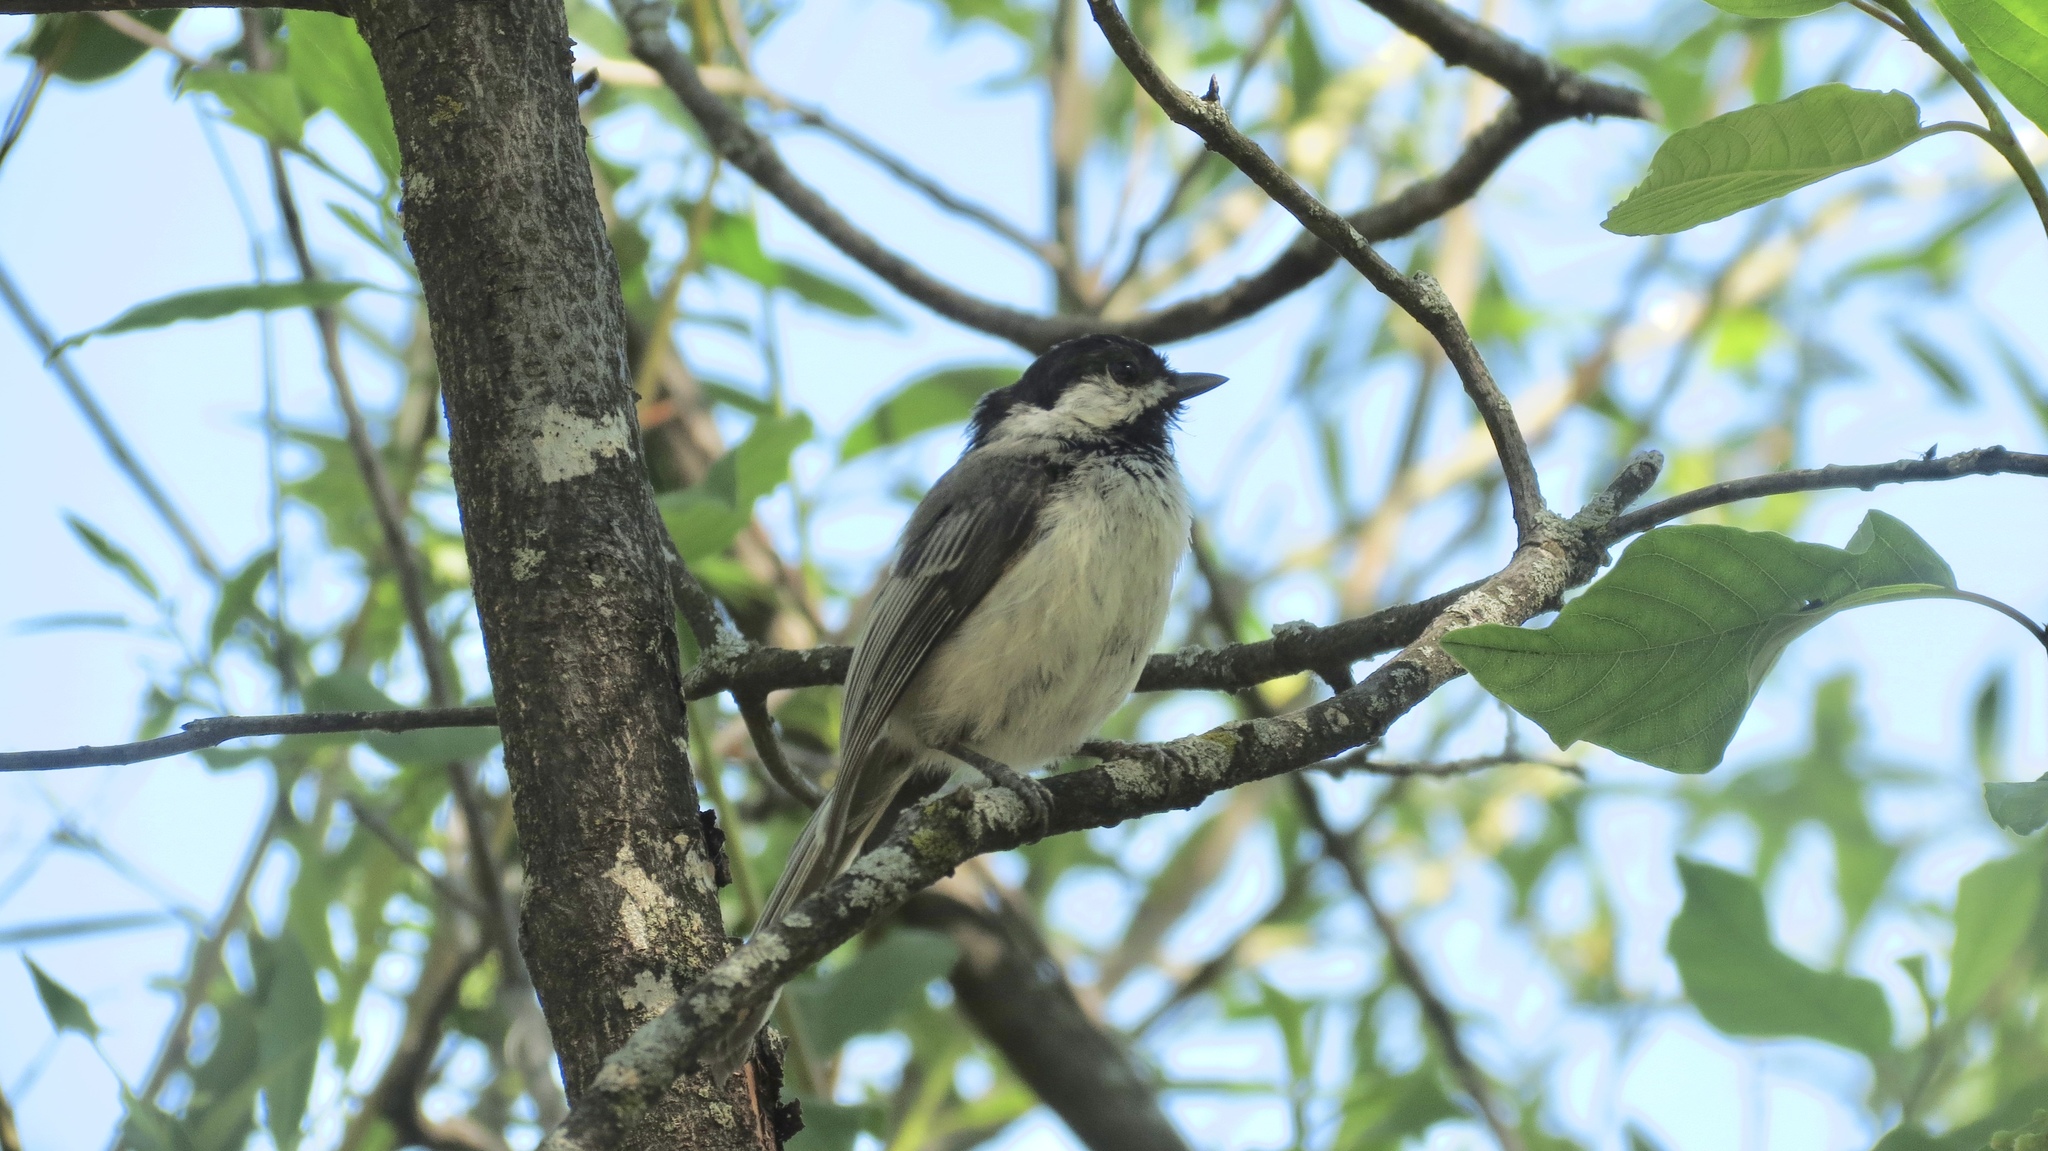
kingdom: Animalia
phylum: Chordata
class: Aves
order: Passeriformes
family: Paridae
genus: Poecile
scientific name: Poecile atricapillus
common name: Black-capped chickadee
